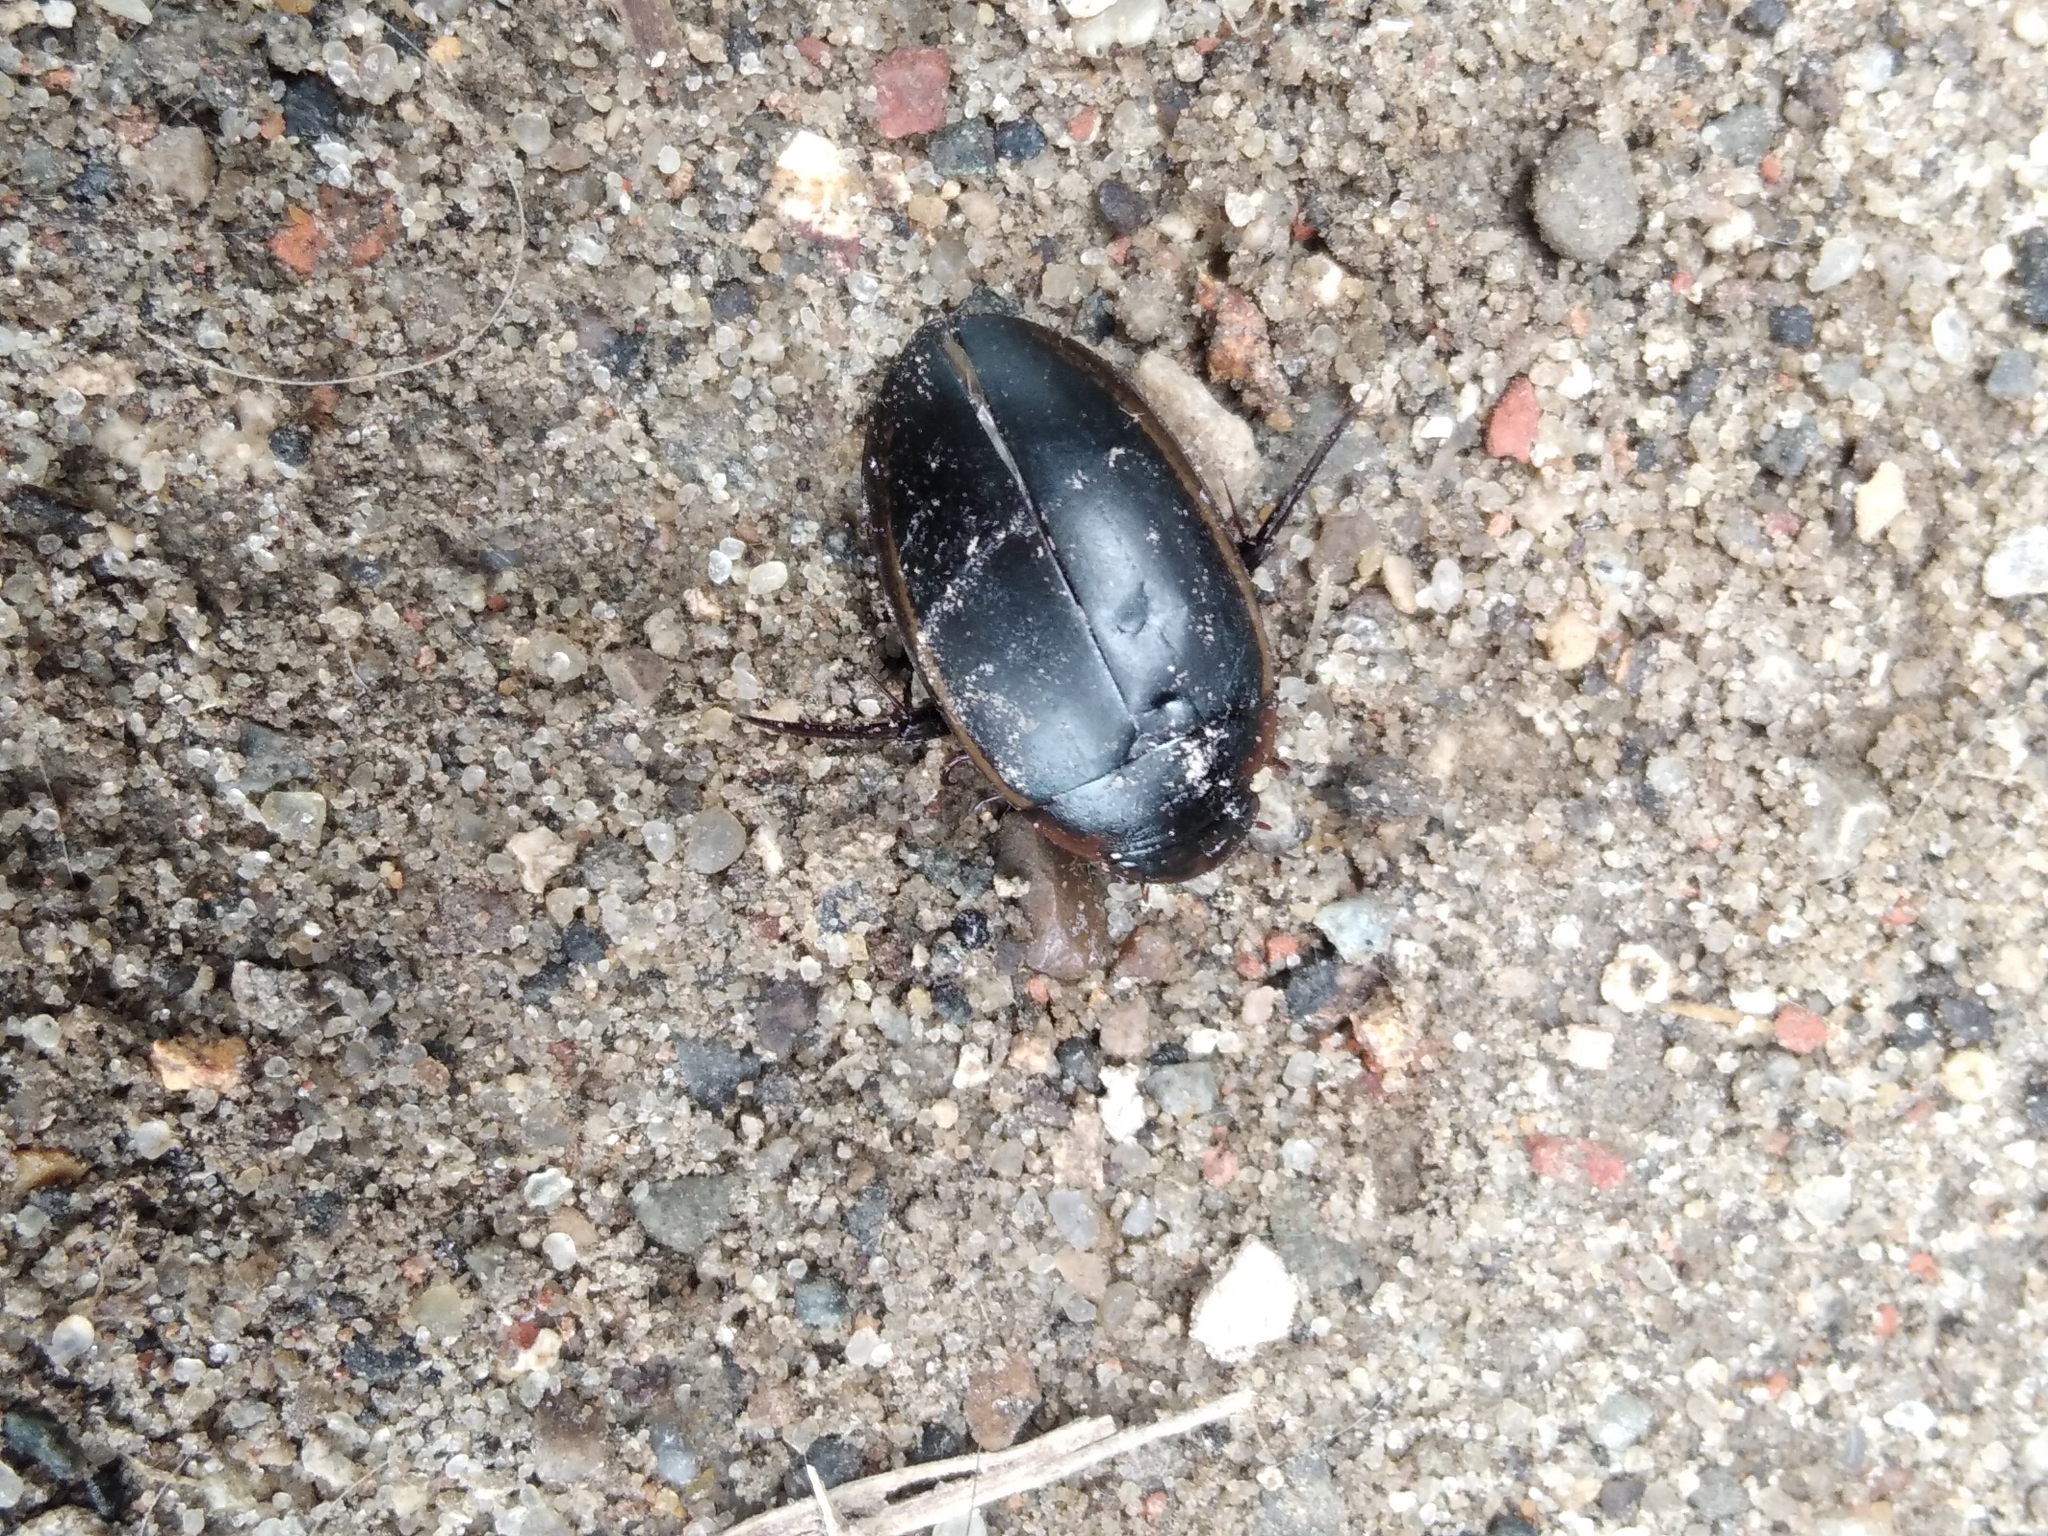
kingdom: Animalia
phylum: Arthropoda
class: Insecta
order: Coleoptera
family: Dytiscidae
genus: Hydaticus
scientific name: Hydaticus seminiger
